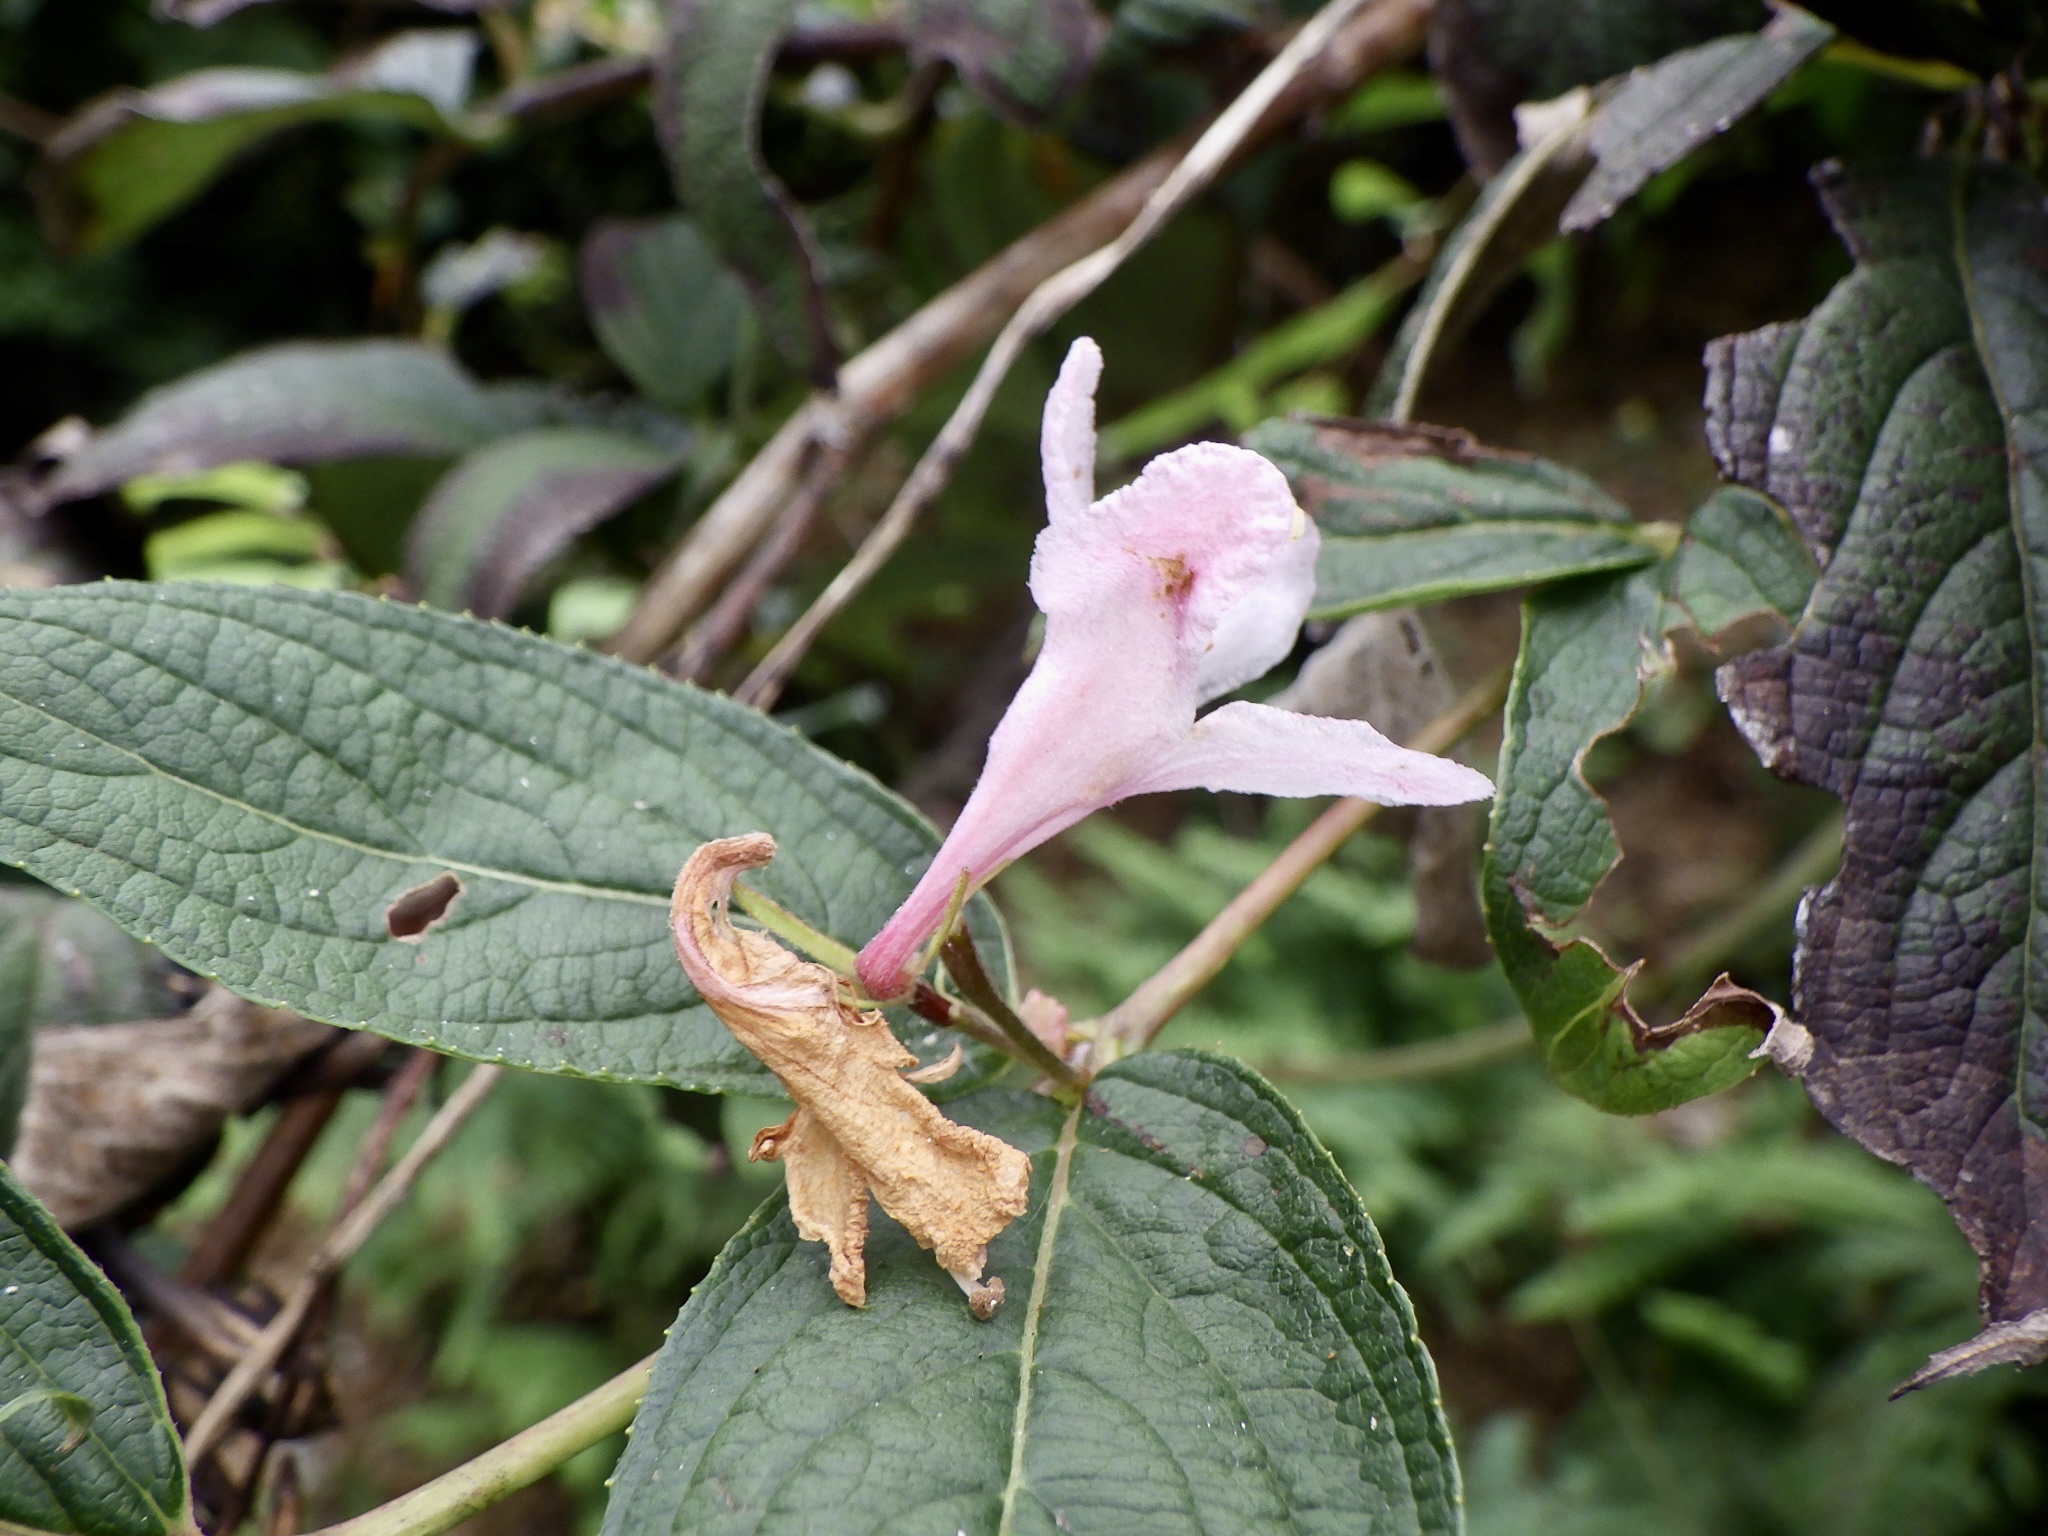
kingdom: Plantae
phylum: Tracheophyta
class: Magnoliopsida
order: Dipsacales
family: Caprifoliaceae
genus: Weigela
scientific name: Weigela hortensis
